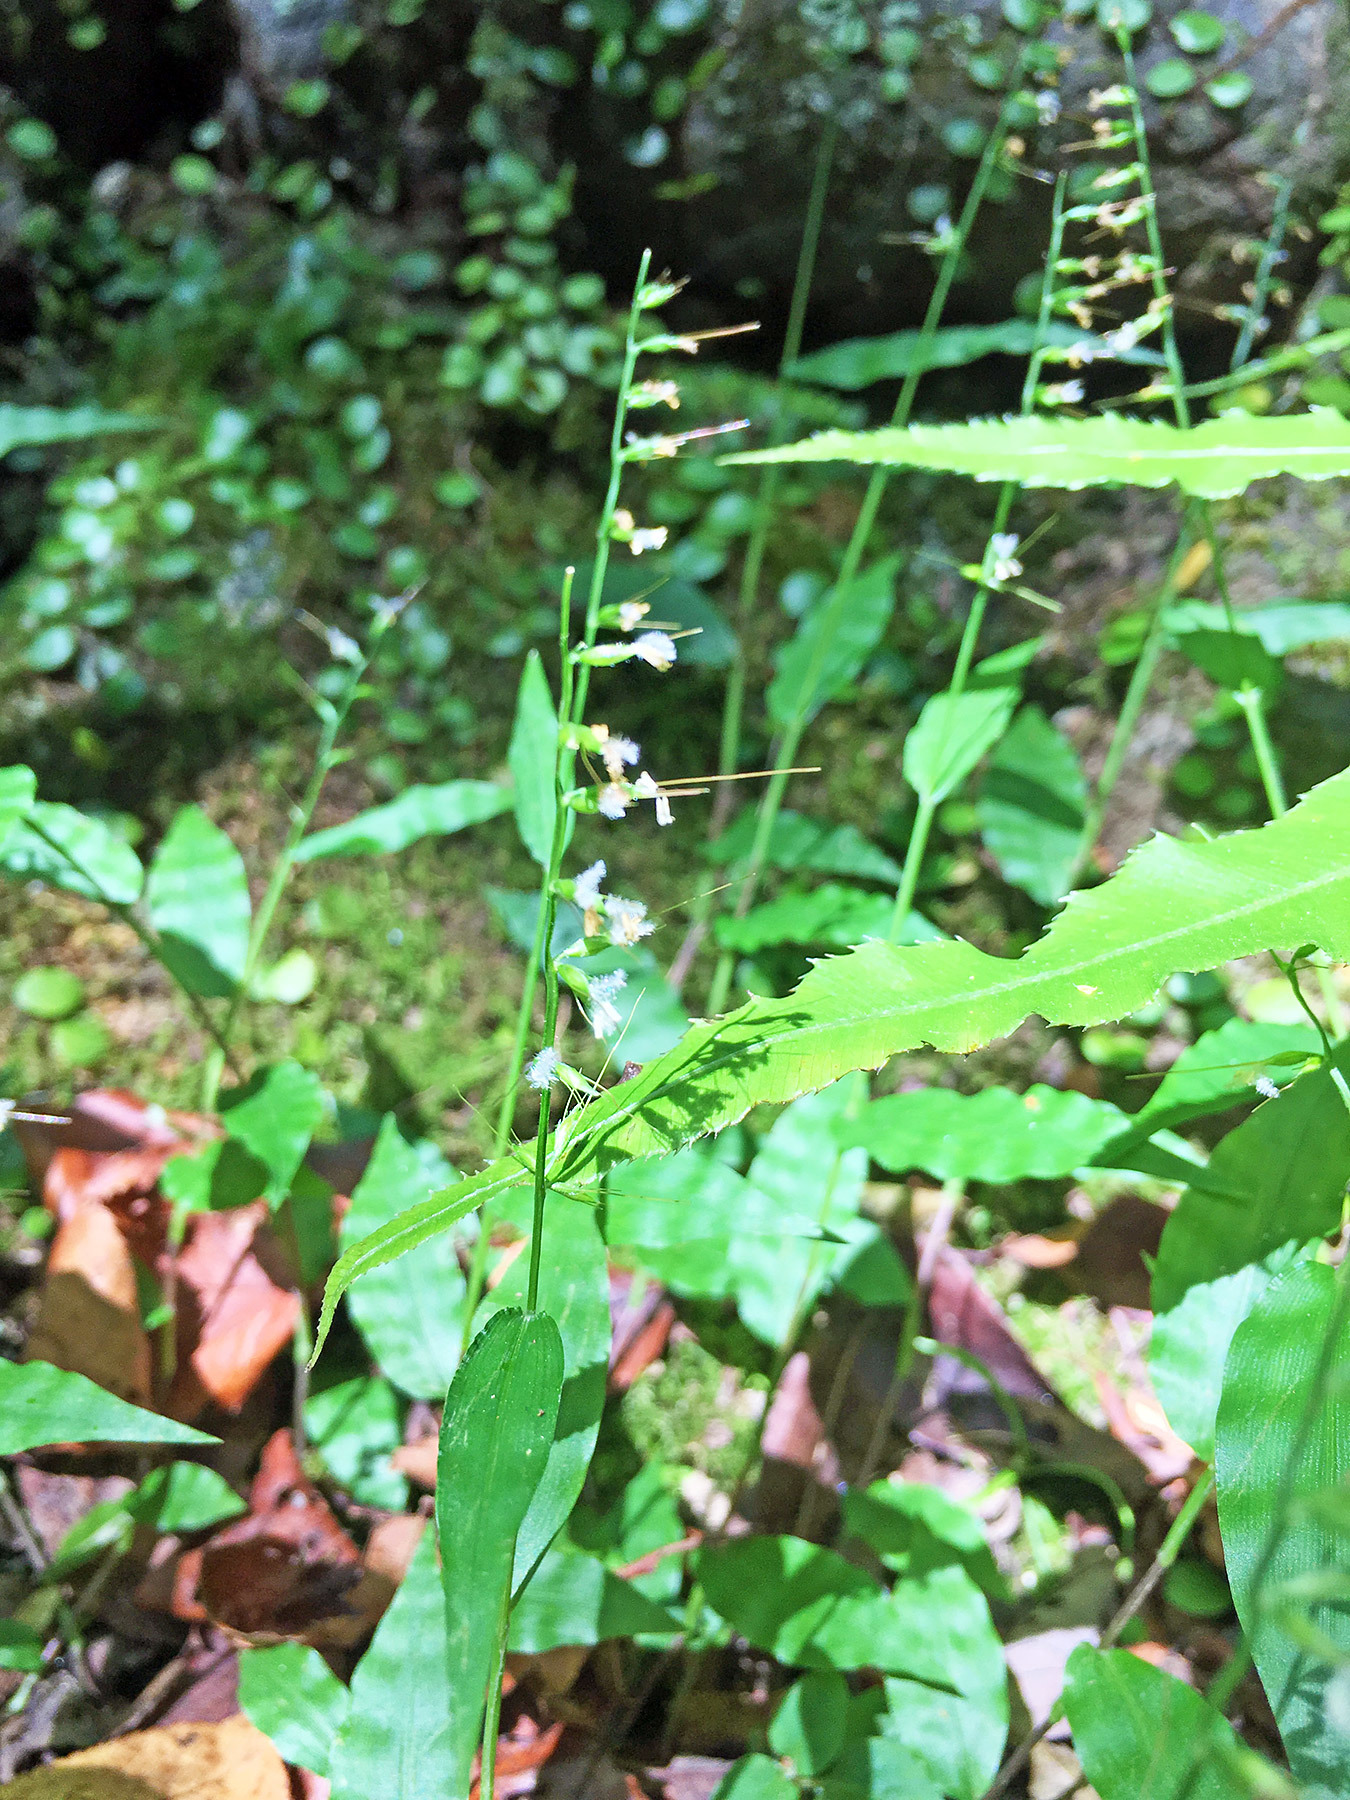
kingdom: Plantae
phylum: Tracheophyta
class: Liliopsida
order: Poales
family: Poaceae
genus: Oplismenus
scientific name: Oplismenus undulatifolius
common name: Wavyleaf basketgrass
